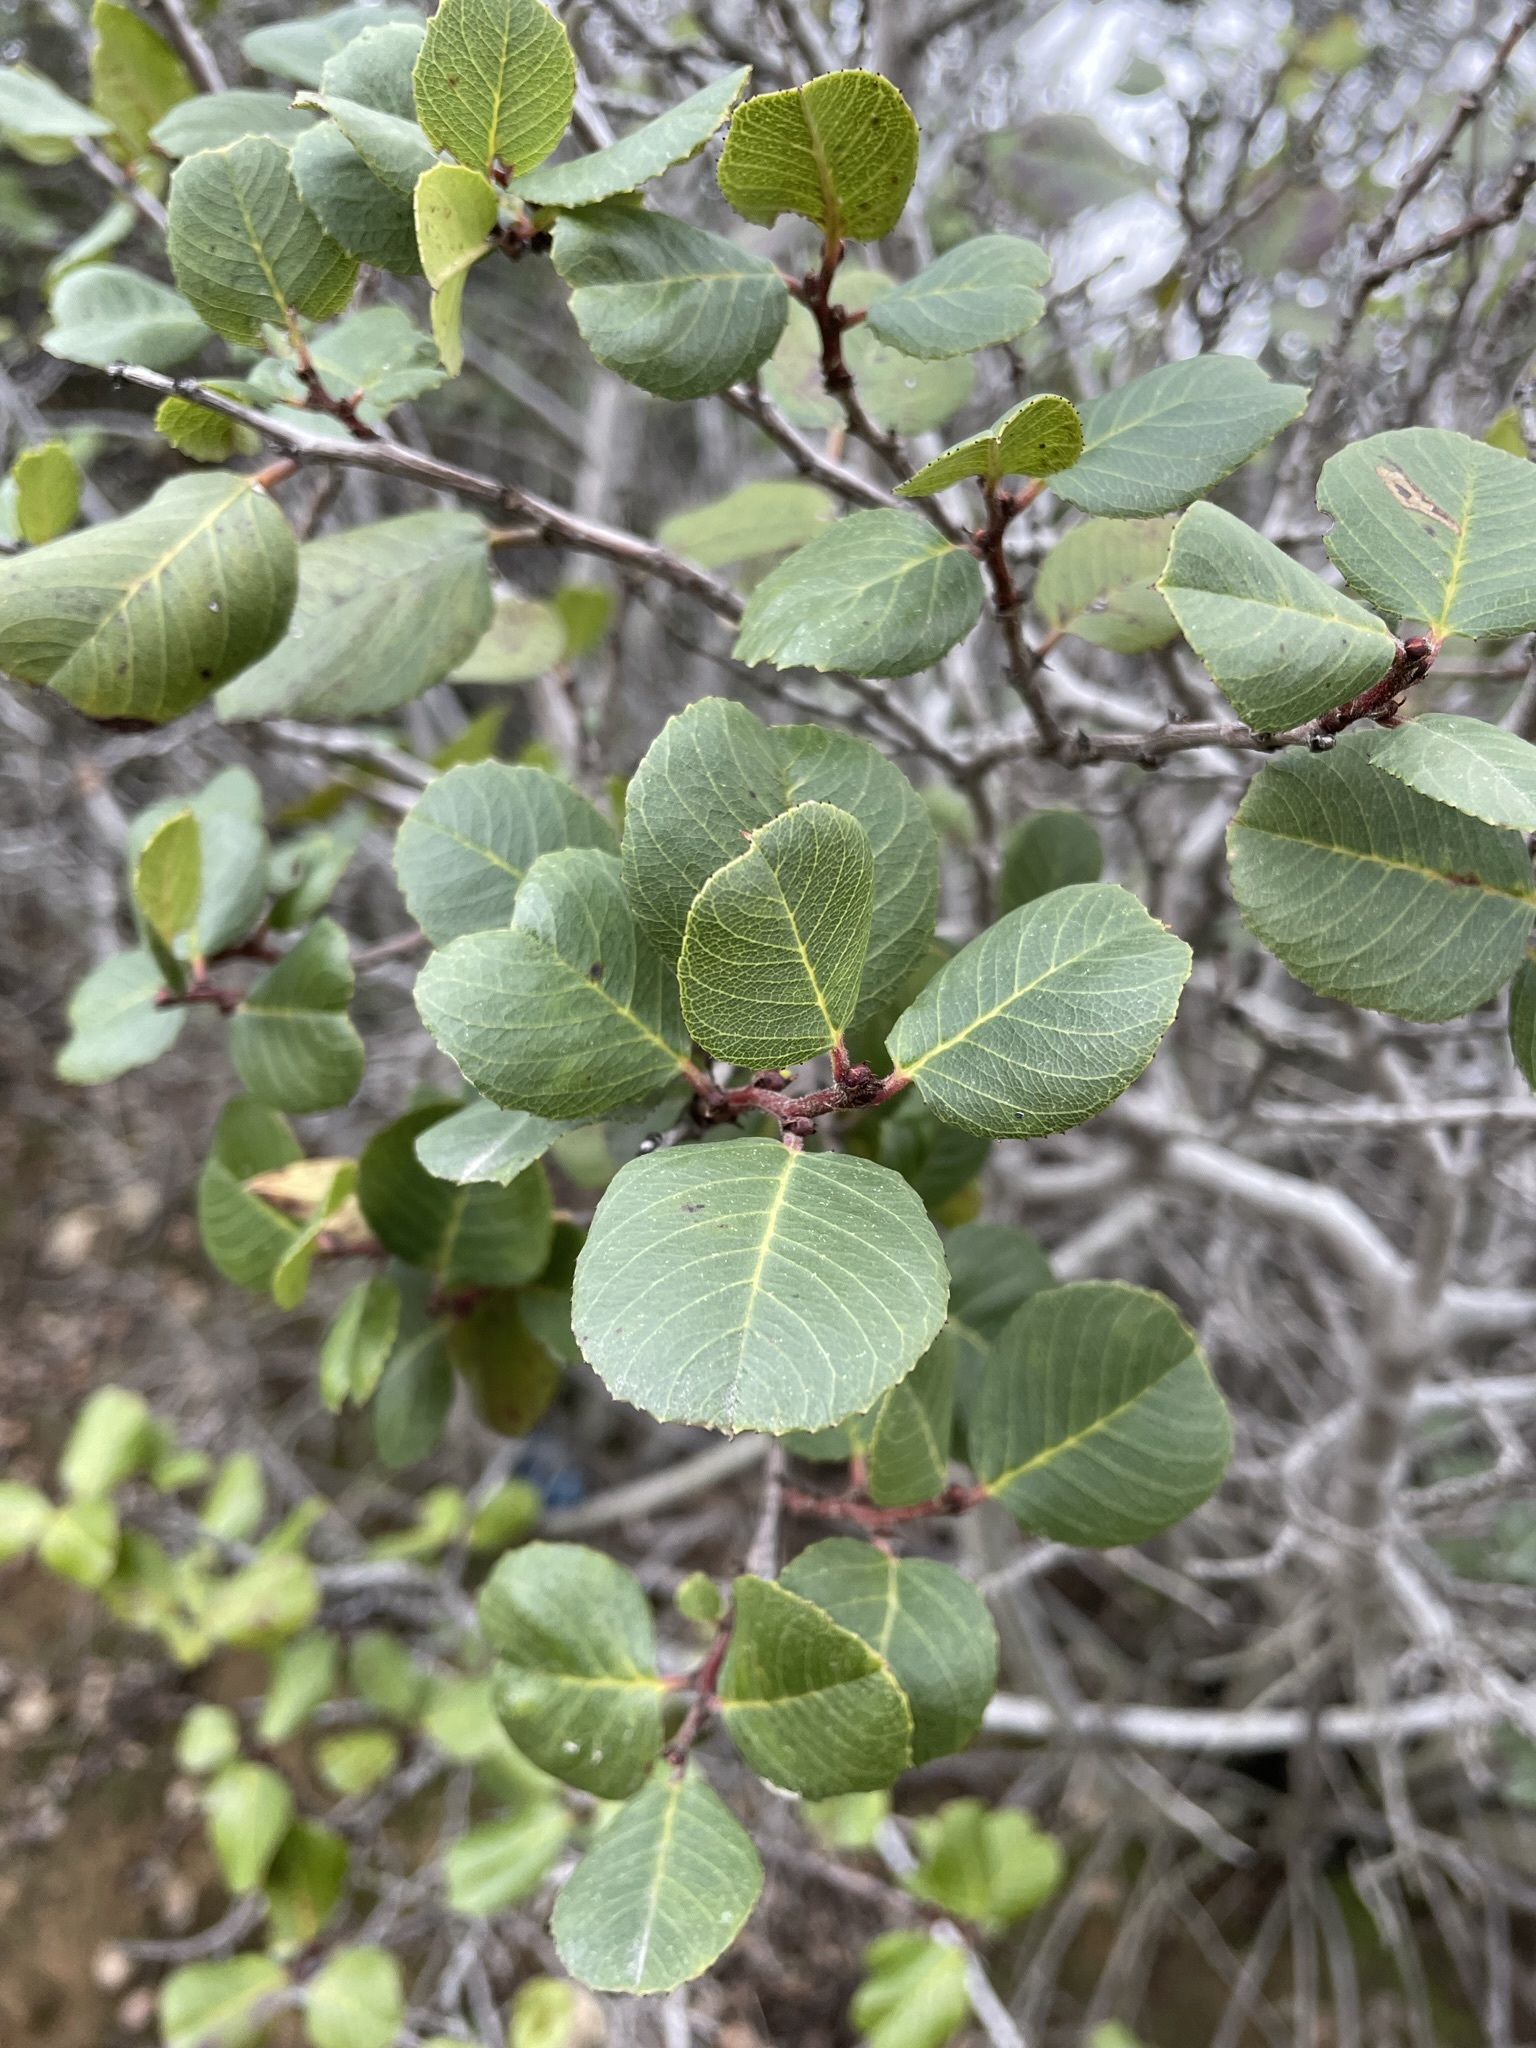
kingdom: Plantae
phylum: Tracheophyta
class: Magnoliopsida
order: Rosales
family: Rhamnaceae
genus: Endotropis
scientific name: Endotropis crocea
